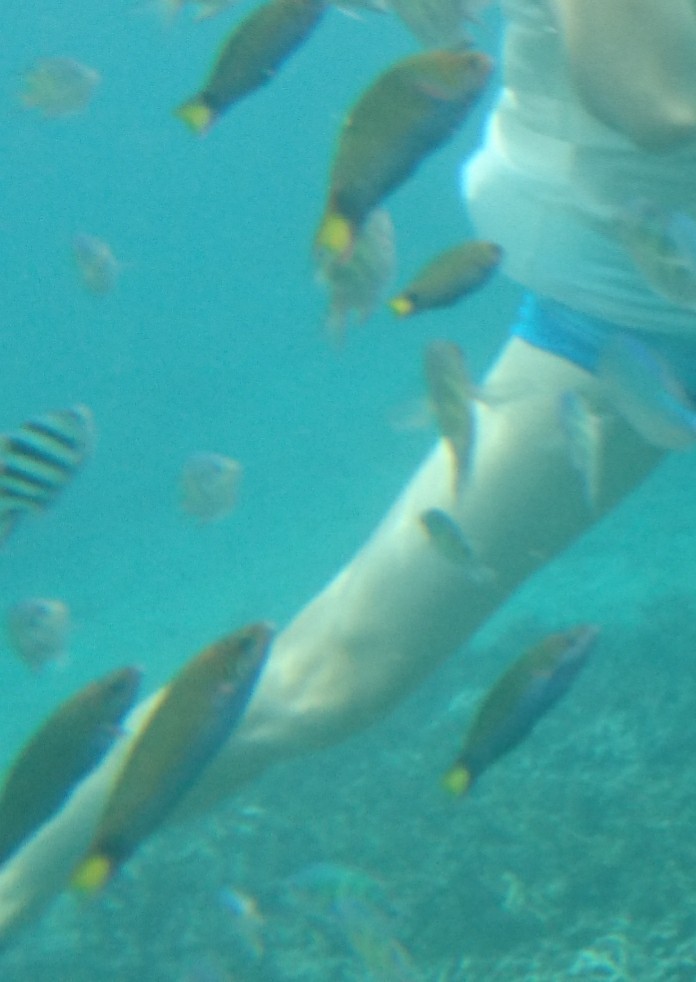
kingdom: Animalia
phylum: Chordata
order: Perciformes
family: Labridae
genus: Thalassoma
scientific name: Thalassoma lunare
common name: Blue wrasse
